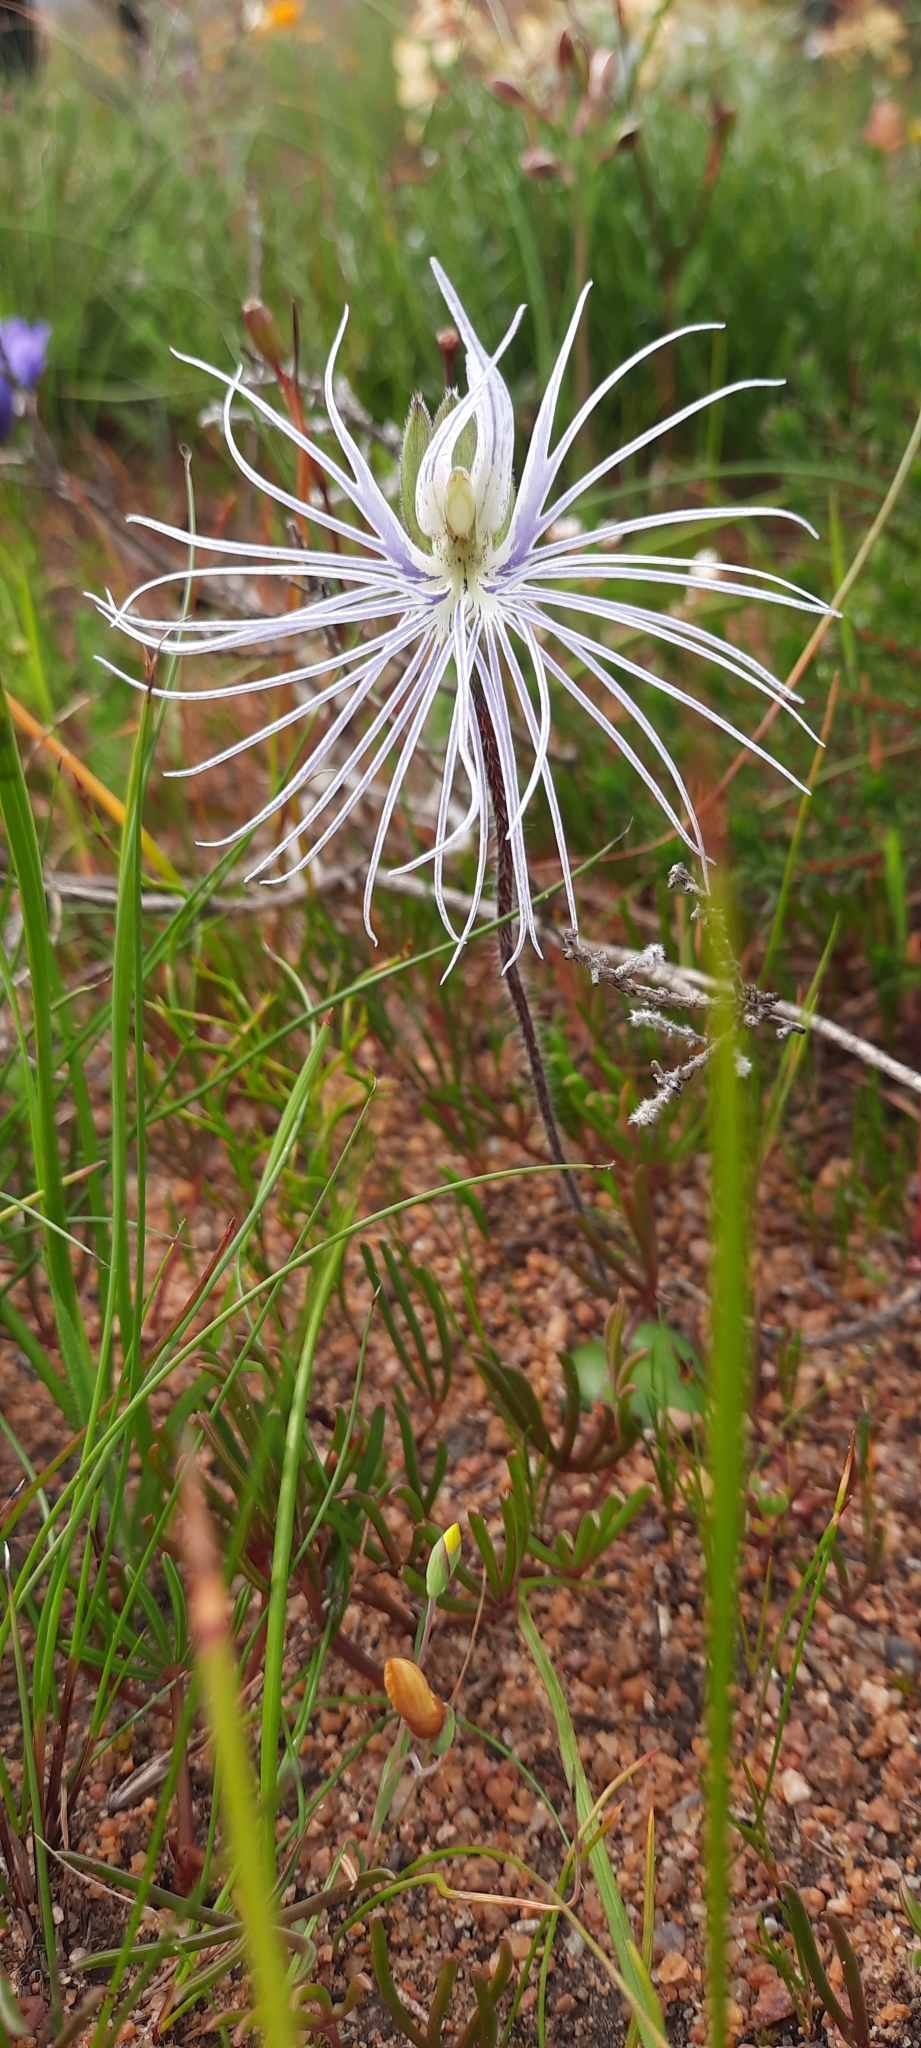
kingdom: Plantae
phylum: Tracheophyta
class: Liliopsida
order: Asparagales
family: Orchidaceae
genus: Holothrix
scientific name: Holothrix burmanniana
